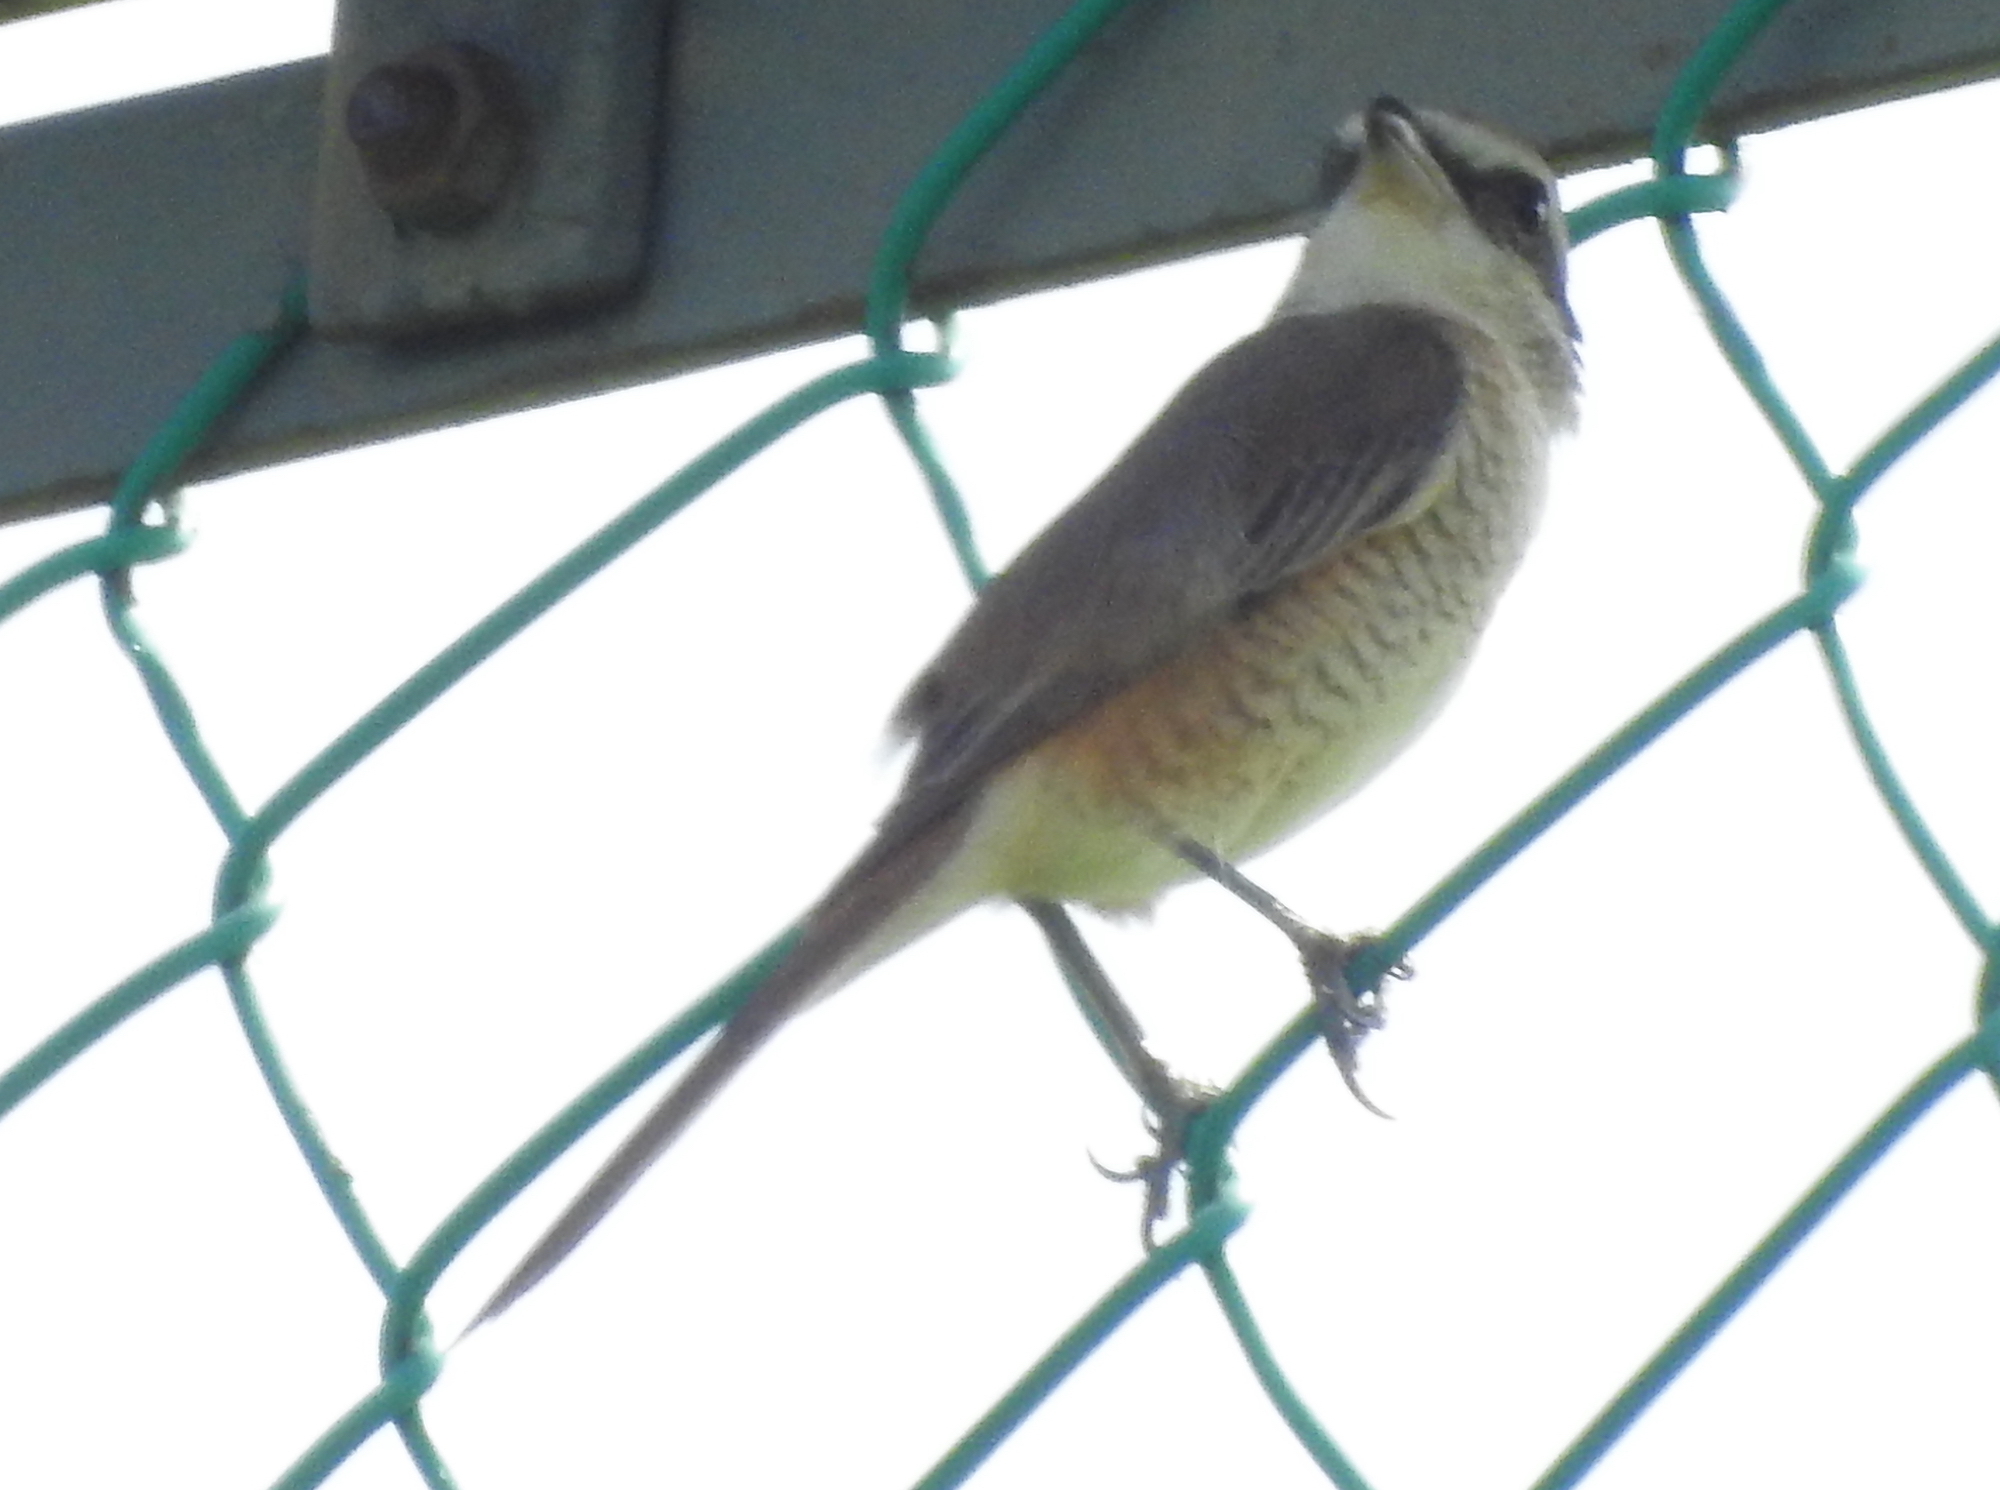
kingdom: Animalia
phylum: Chordata
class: Aves
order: Passeriformes
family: Laniidae
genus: Lanius
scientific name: Lanius cristatus
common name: Brown shrike
